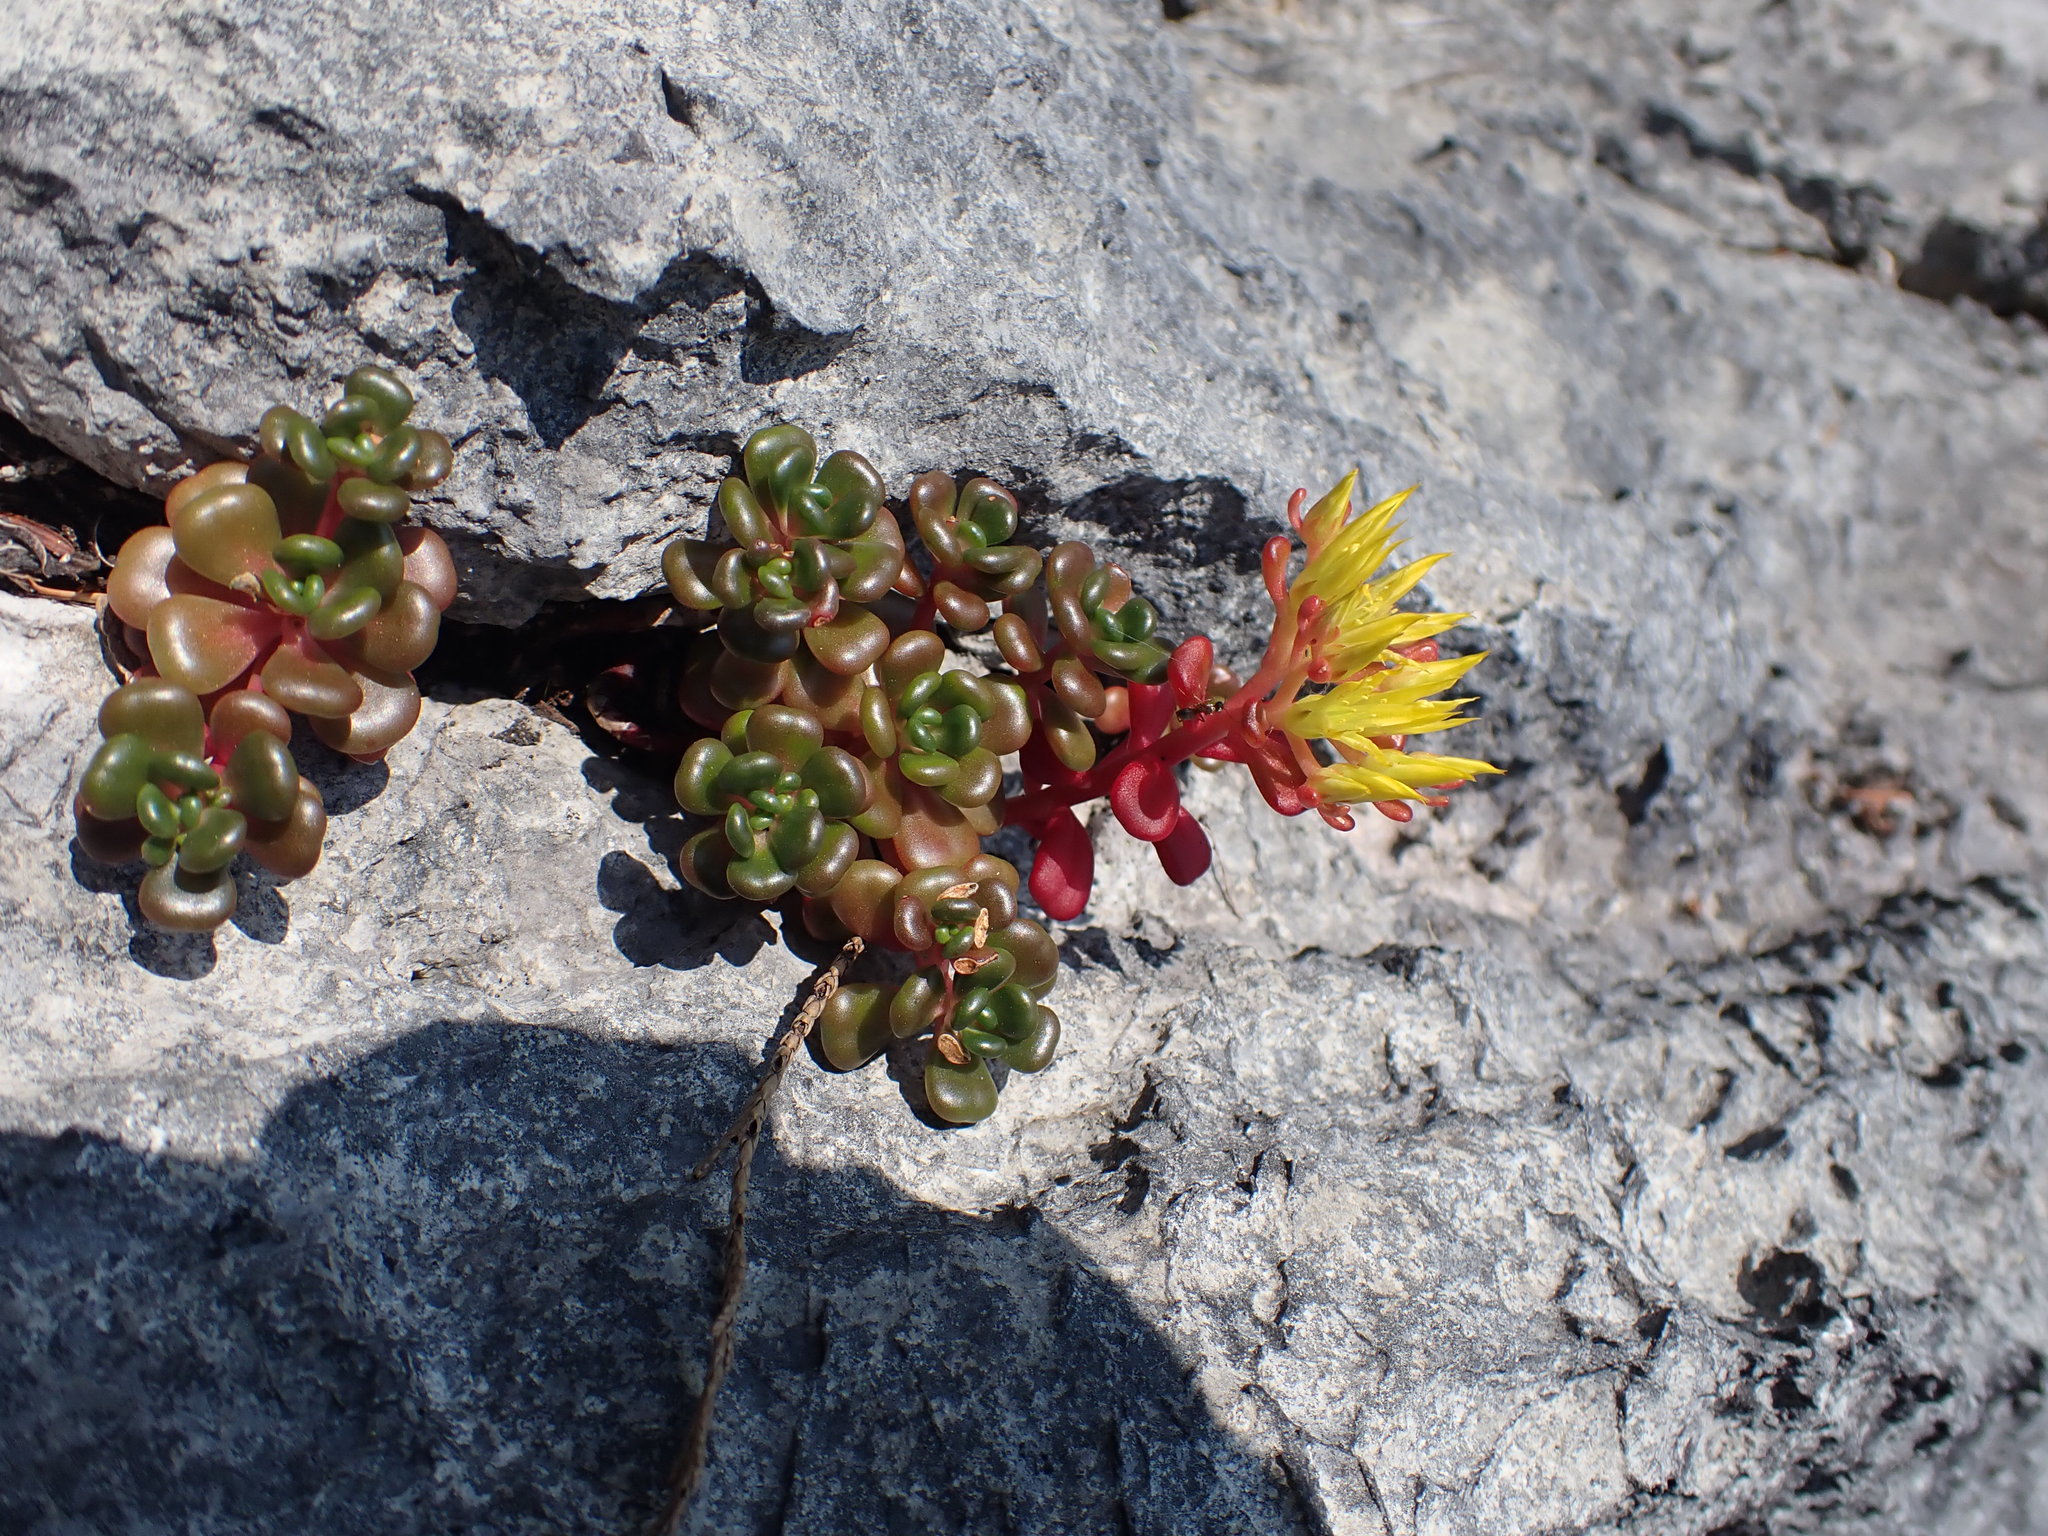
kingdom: Plantae
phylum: Tracheophyta
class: Magnoliopsida
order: Saxifragales
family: Crassulaceae
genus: Sedum
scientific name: Sedum oreganum
